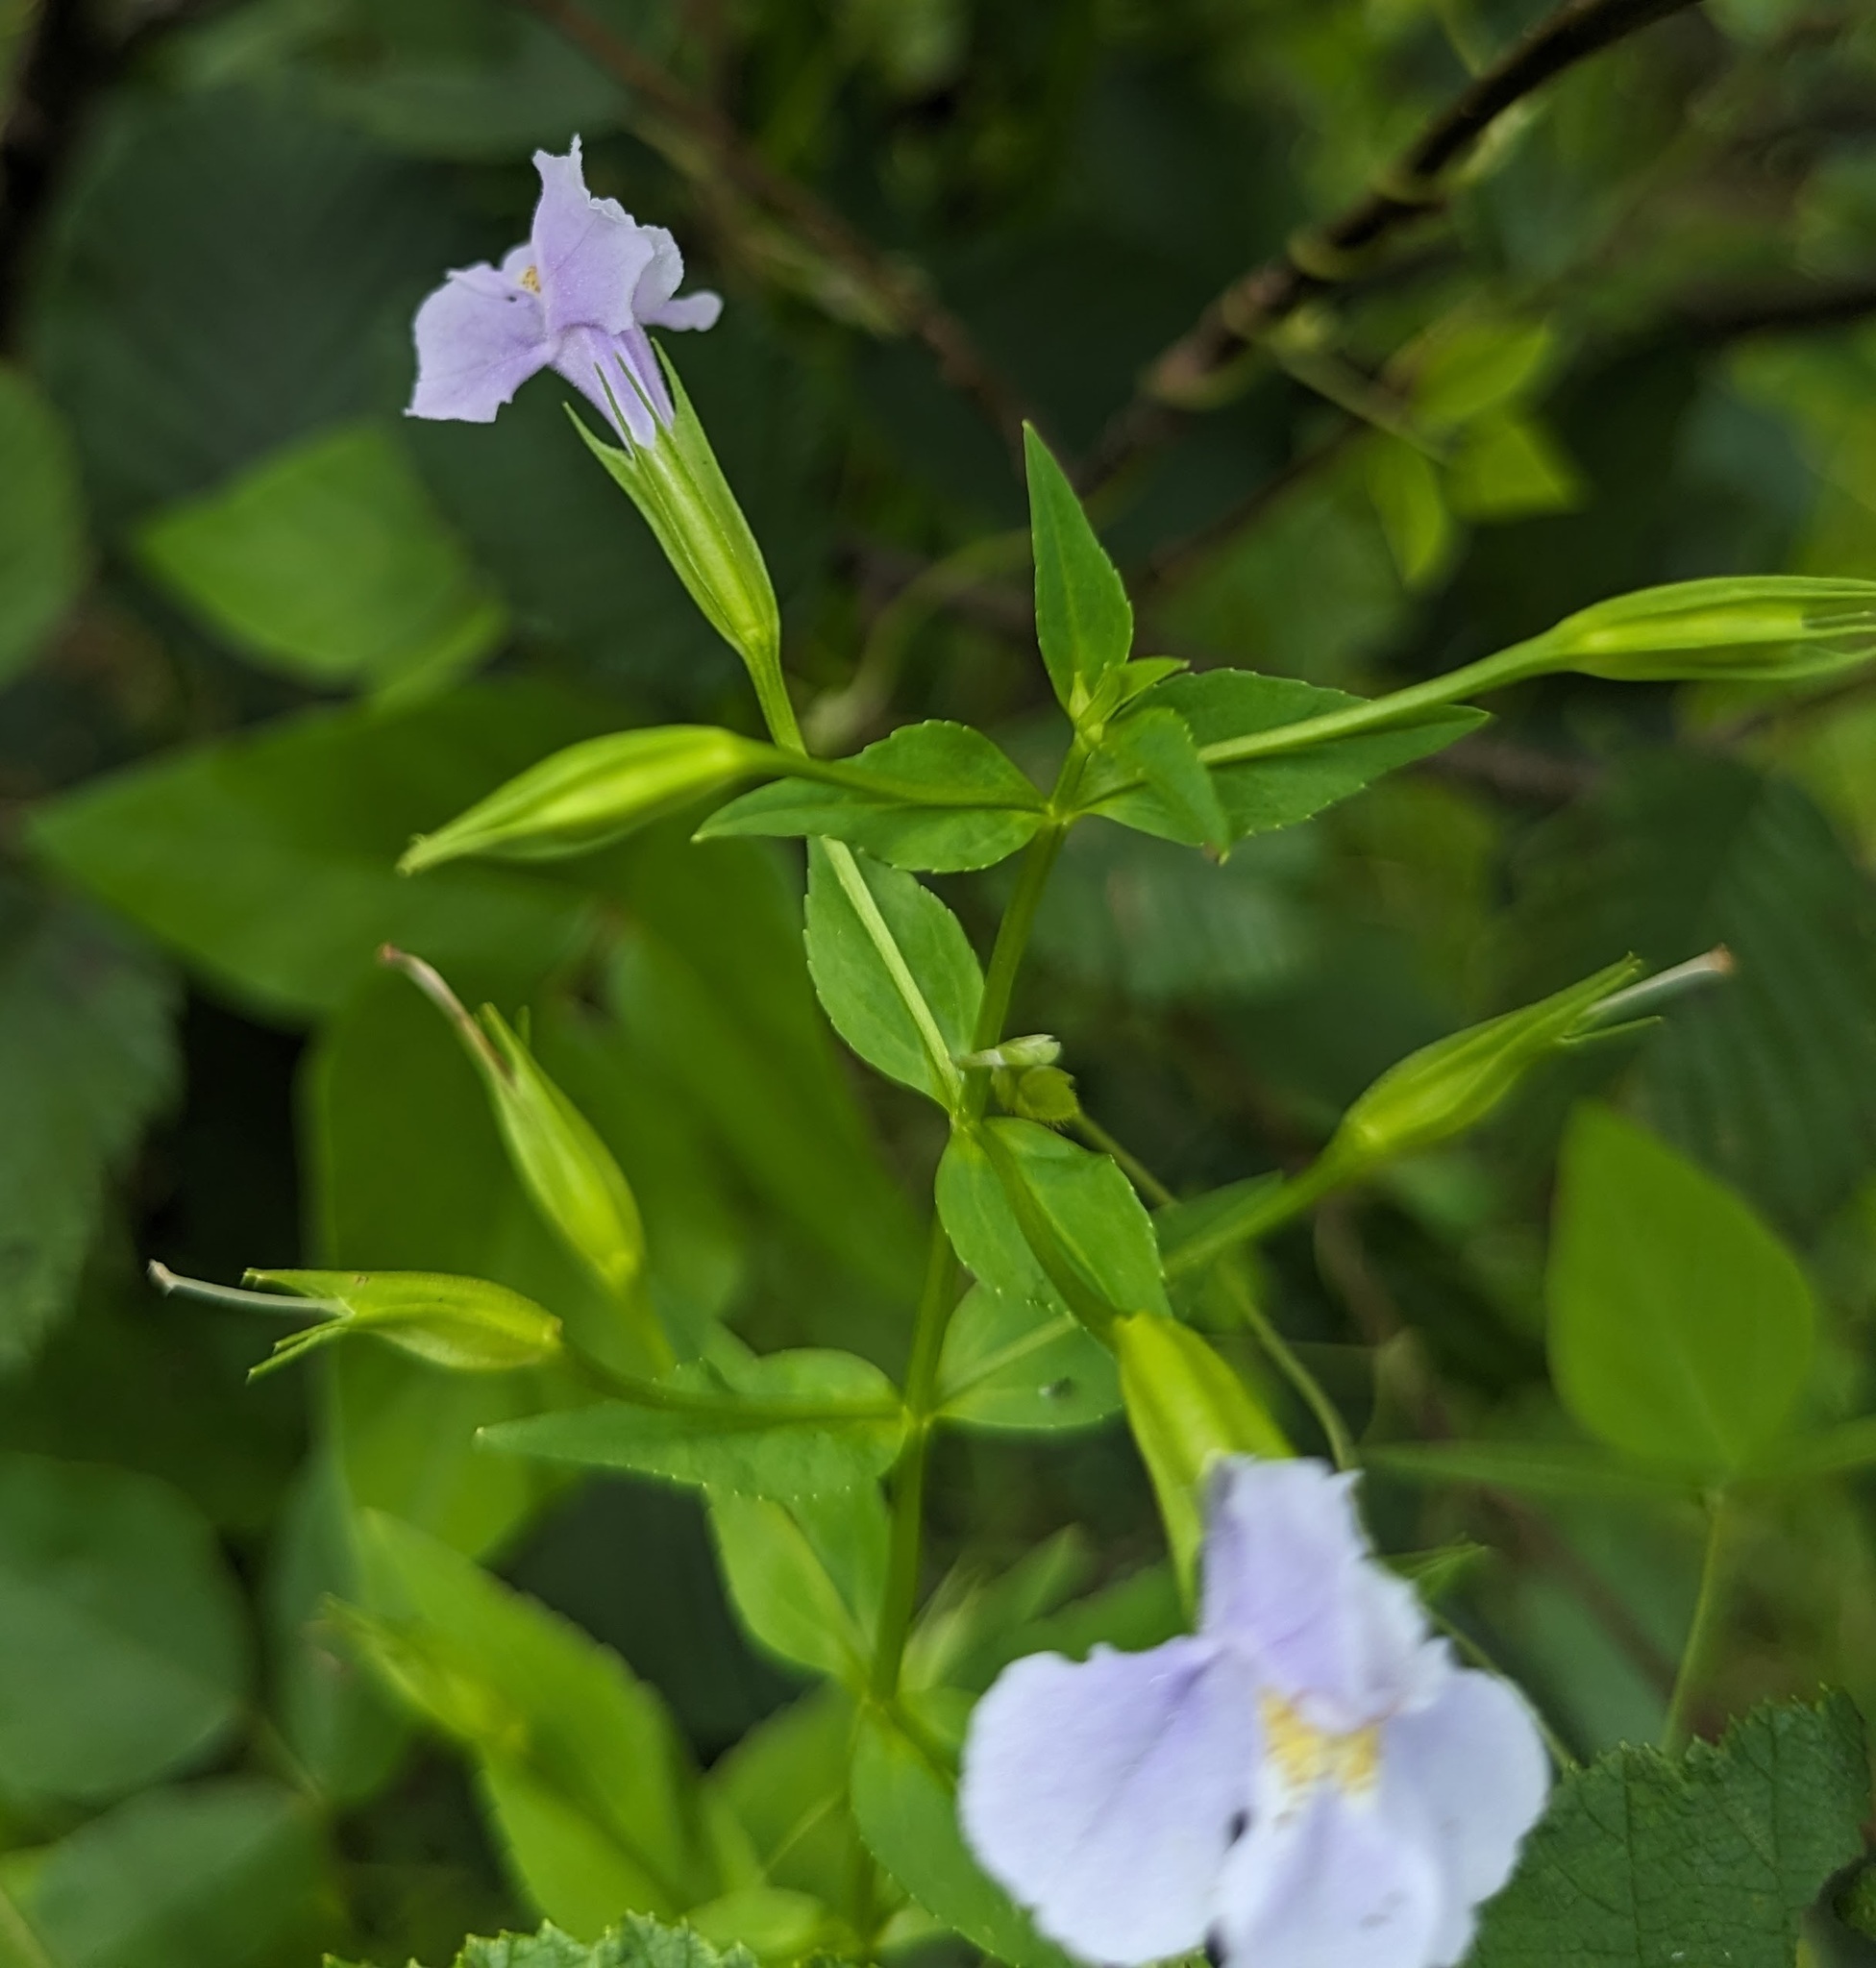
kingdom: Plantae
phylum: Tracheophyta
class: Magnoliopsida
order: Lamiales
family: Phrymaceae
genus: Mimulus
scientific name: Mimulus ringens
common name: Allegheny monkeyflower
